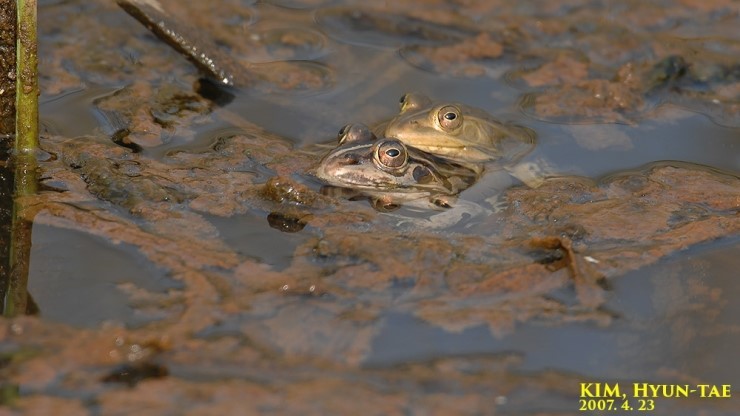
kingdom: Animalia
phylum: Chordata
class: Amphibia
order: Anura
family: Ranidae
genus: Pelophylax
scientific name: Pelophylax nigromaculatus
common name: Black-spotted pond frog
